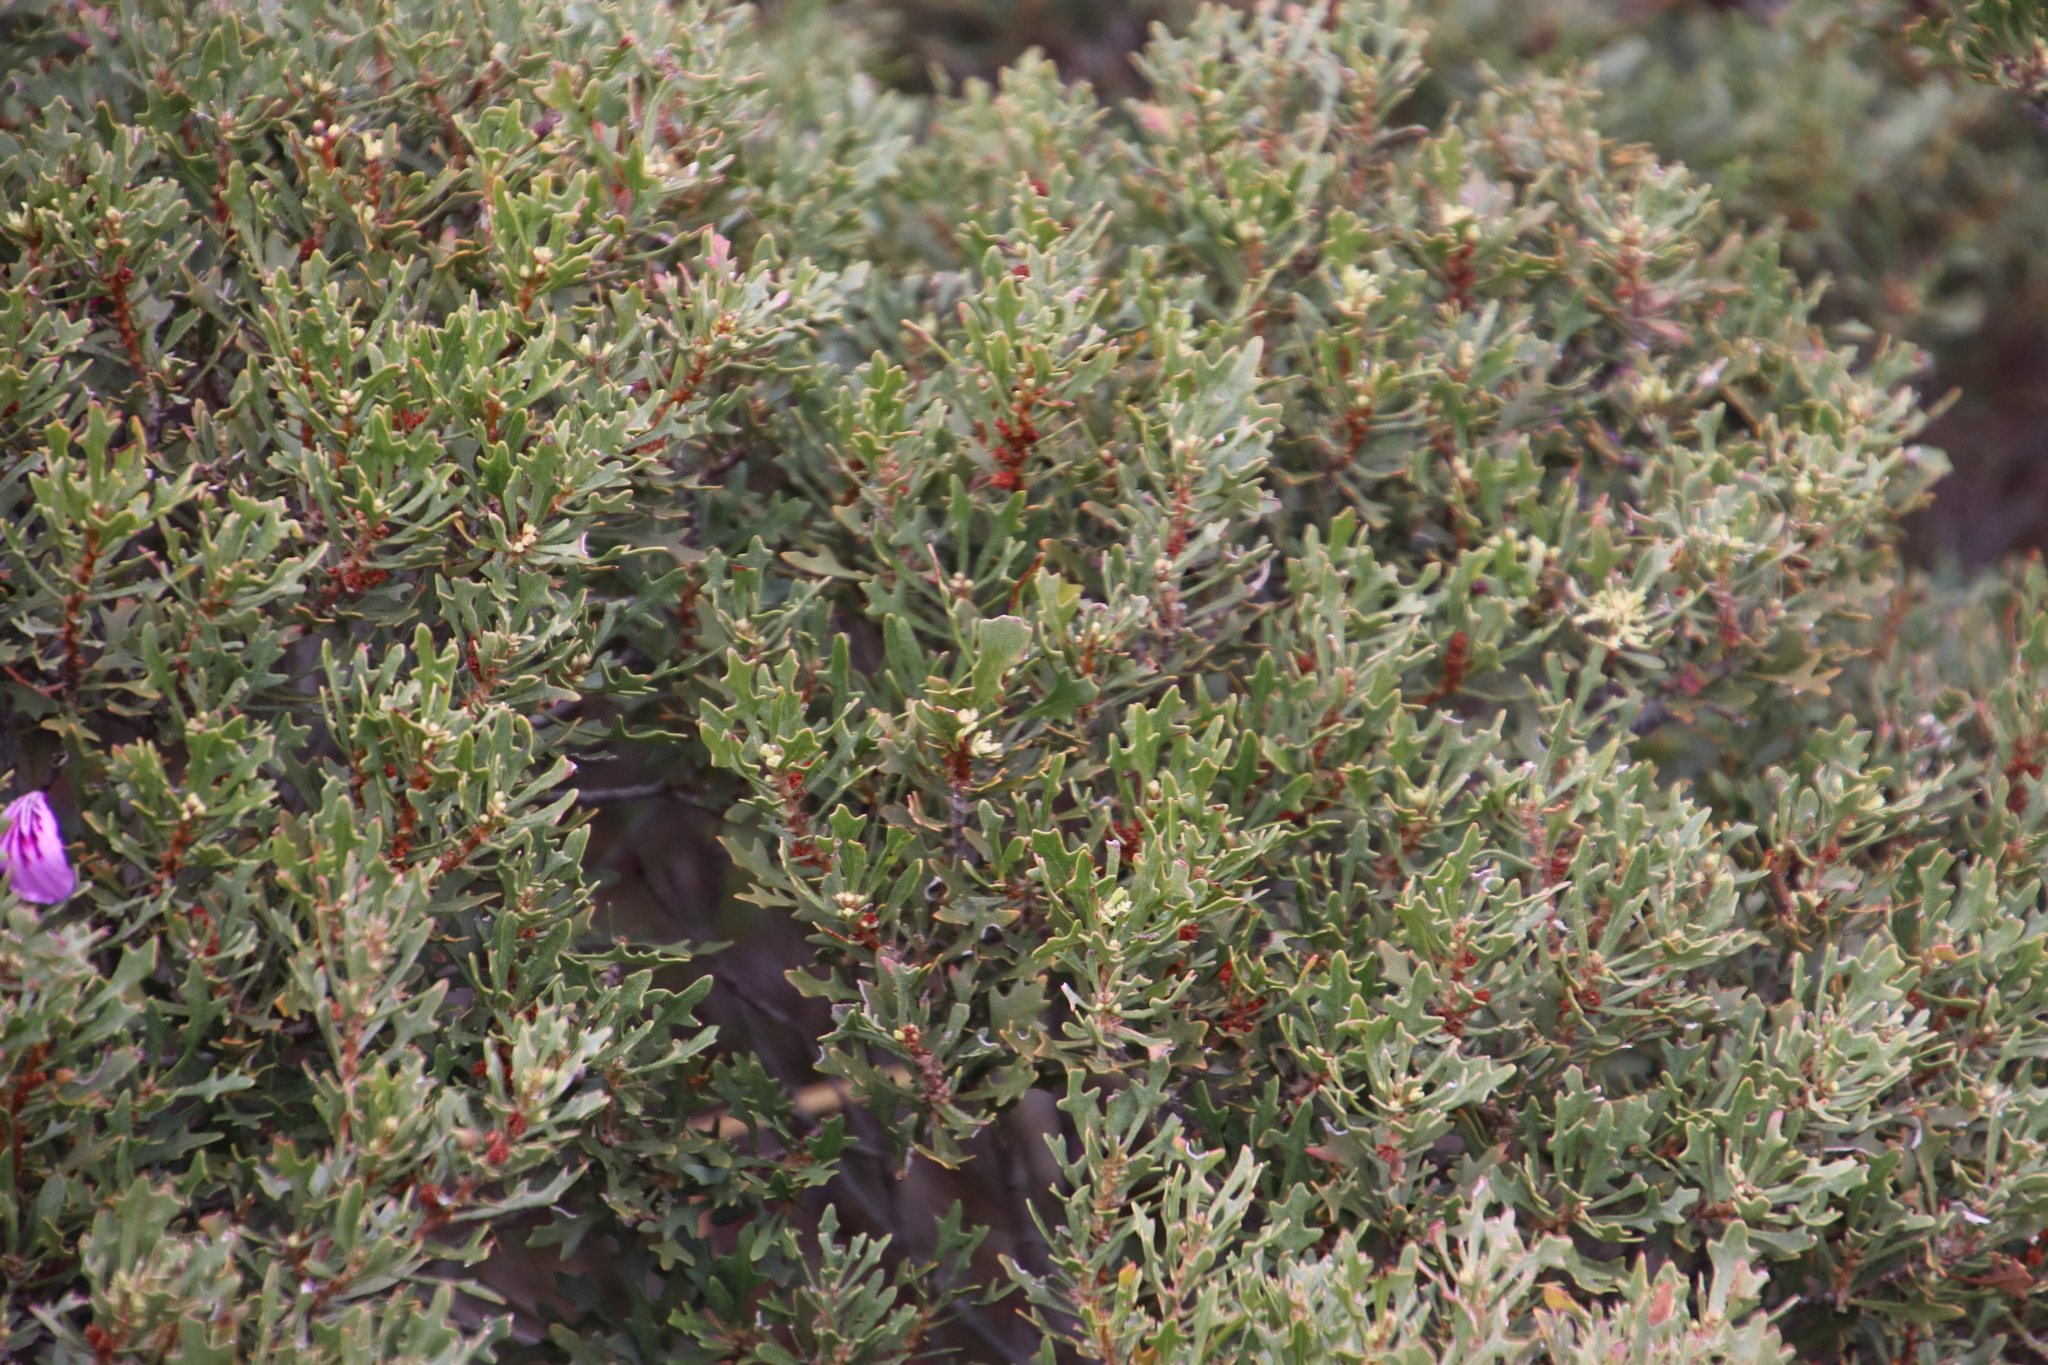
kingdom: Plantae
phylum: Tracheophyta
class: Magnoliopsida
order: Fagales
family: Myricaceae
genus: Morella
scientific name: Morella quercifolia
